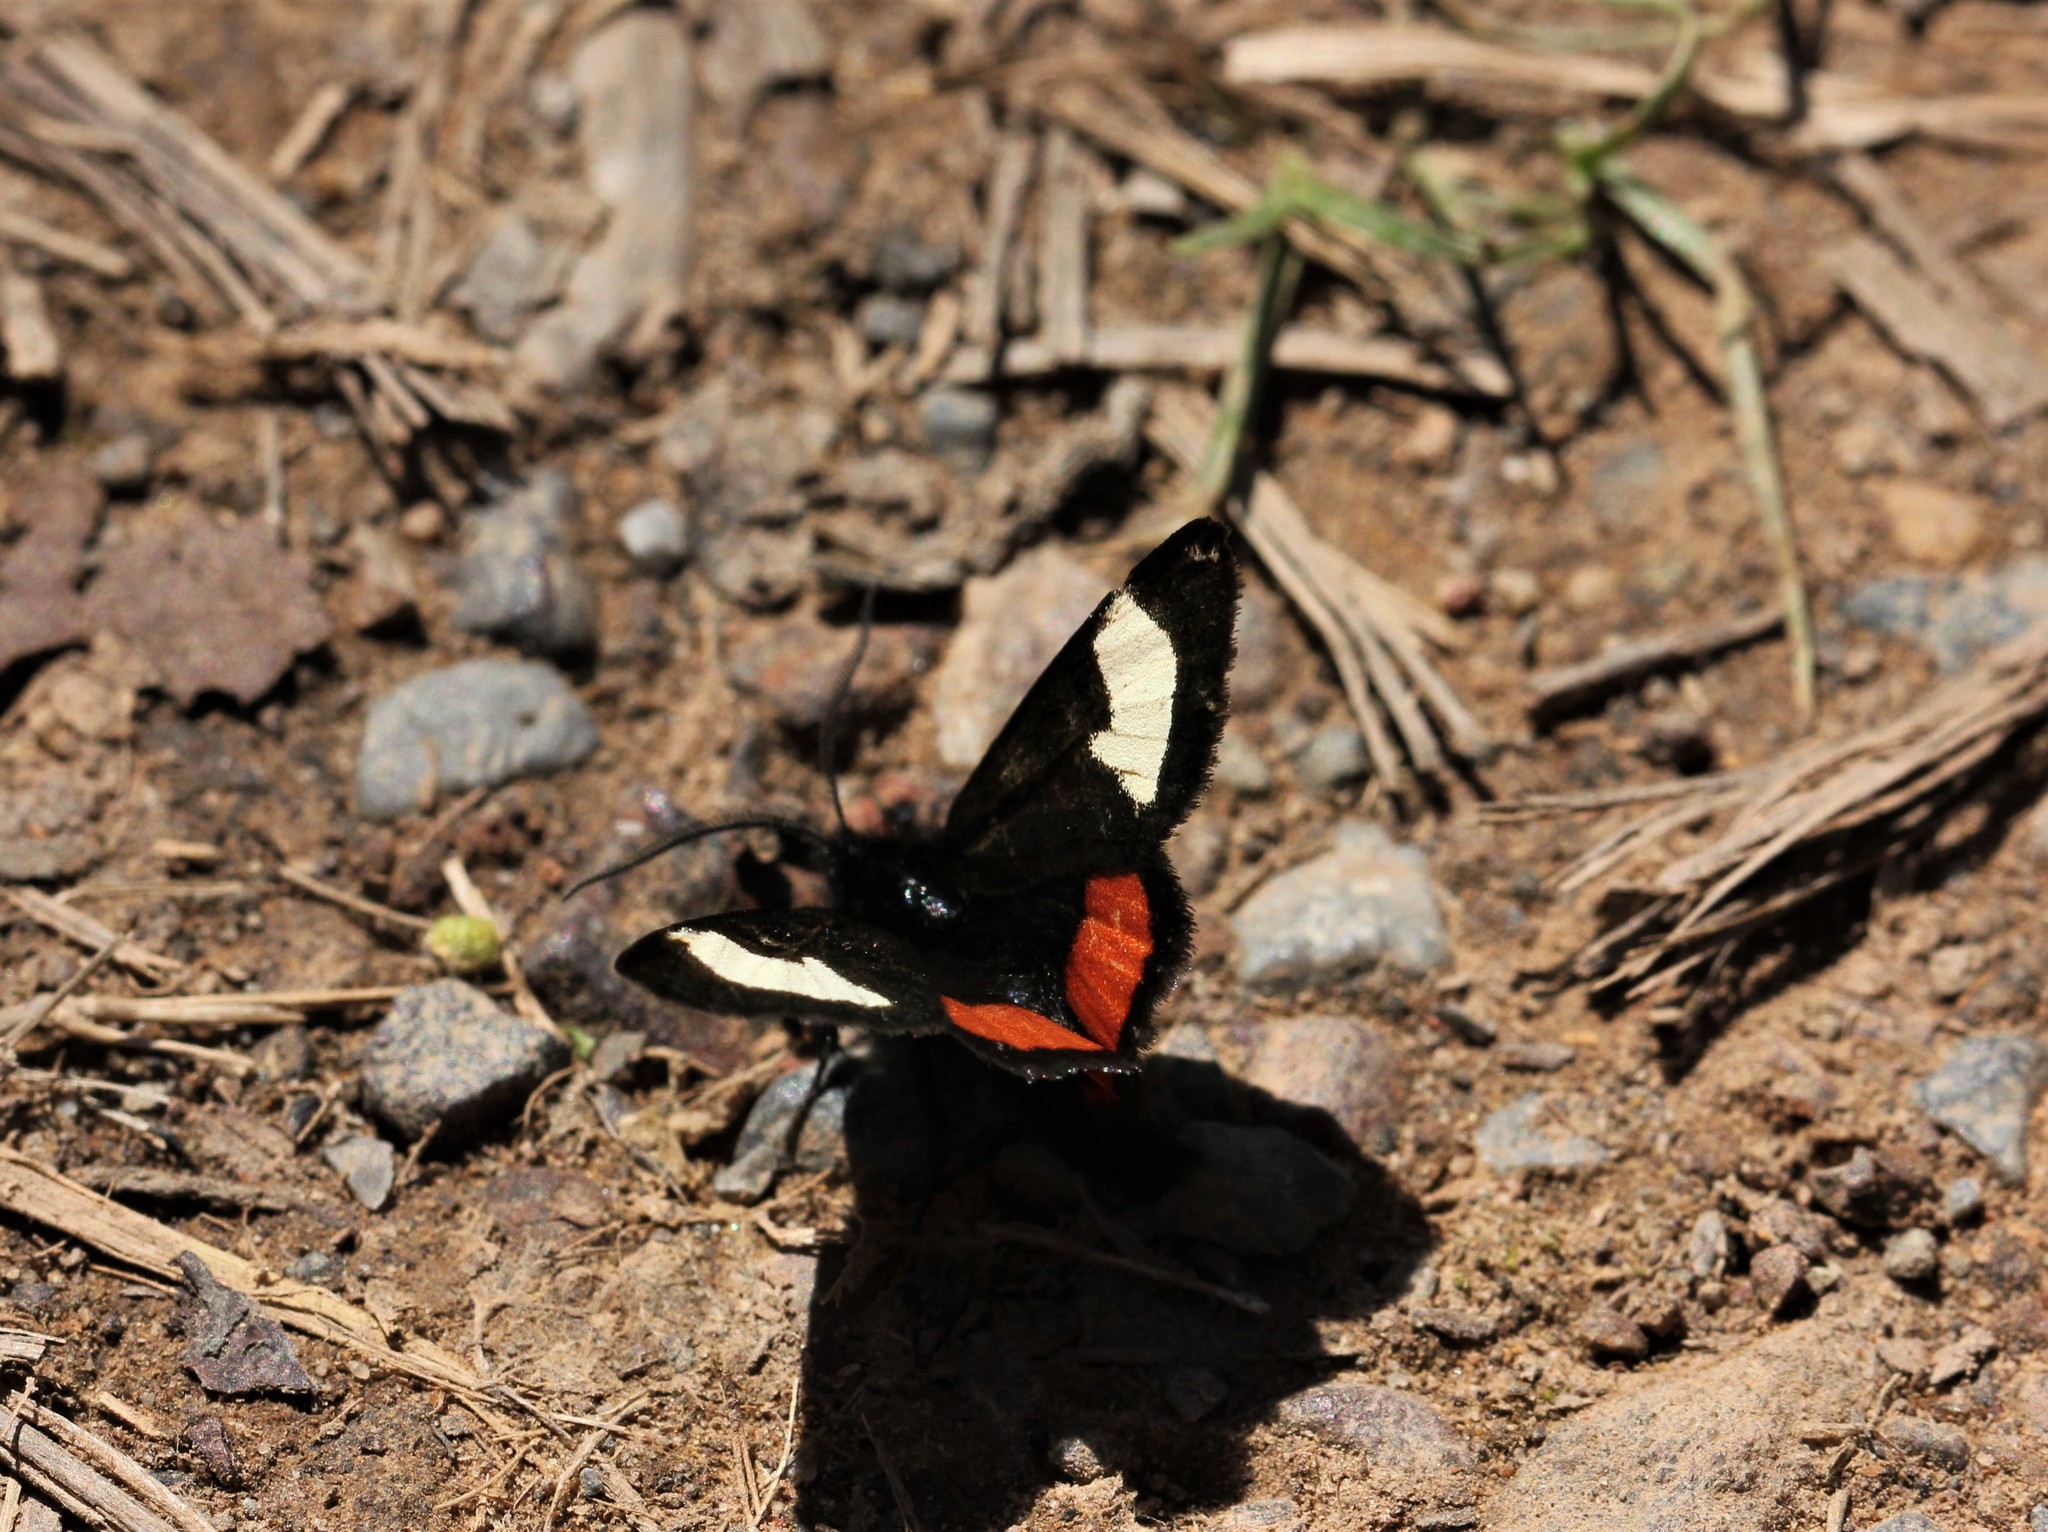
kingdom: Animalia
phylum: Arthropoda
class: Insecta
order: Lepidoptera
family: Noctuidae
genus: Psychomorpha
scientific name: Psychomorpha epimenis
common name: Grapevine epimenis moth
